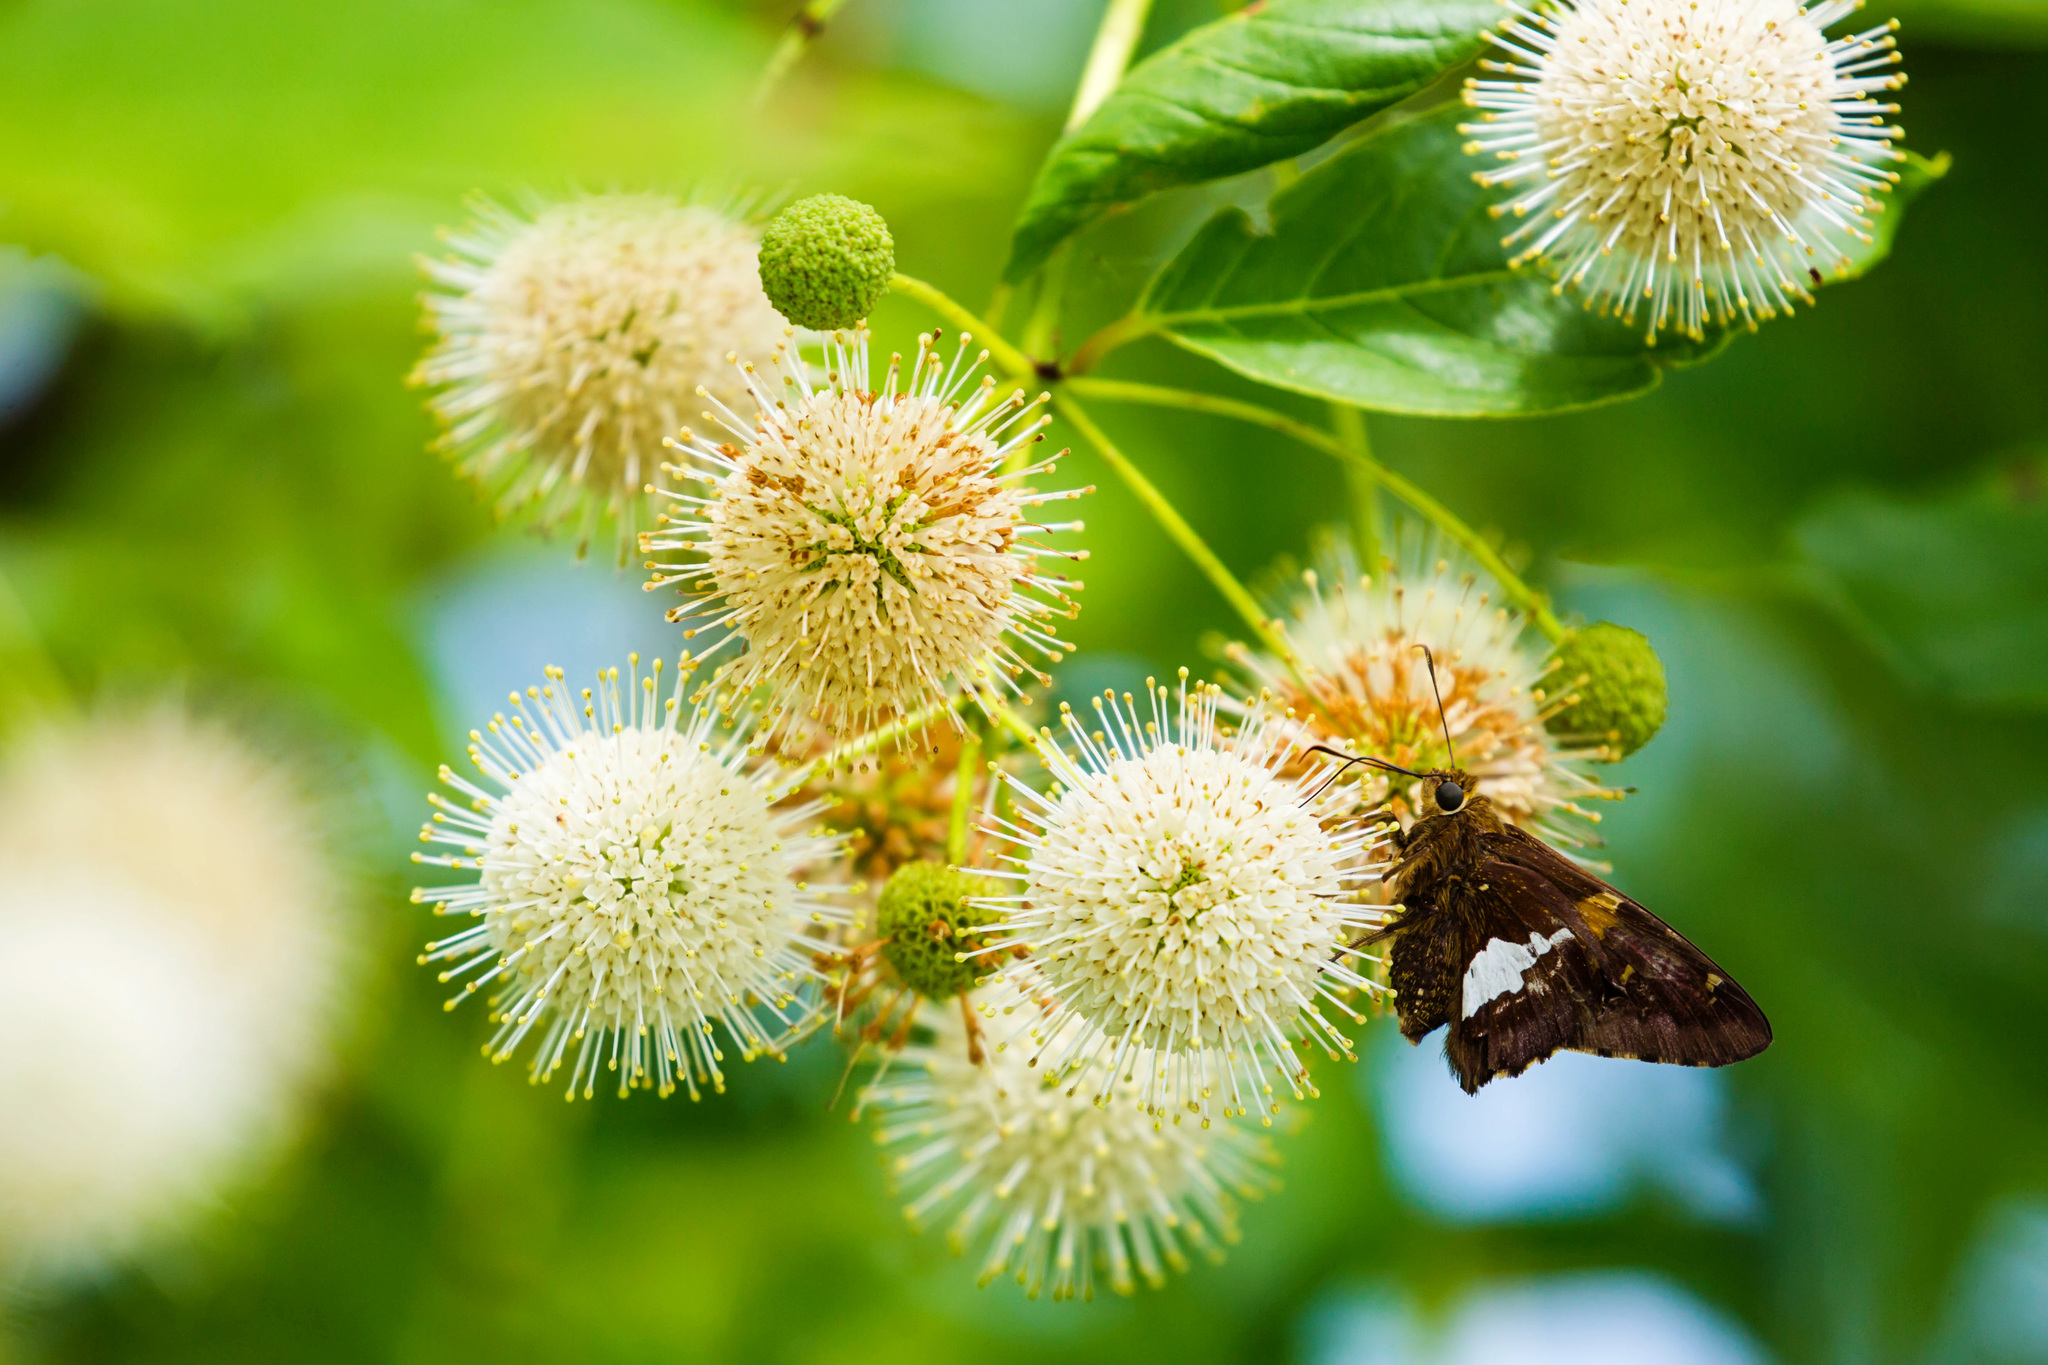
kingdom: Animalia
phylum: Arthropoda
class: Insecta
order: Lepidoptera
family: Hesperiidae
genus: Epargyreus
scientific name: Epargyreus clarus
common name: Silver-spotted skipper
